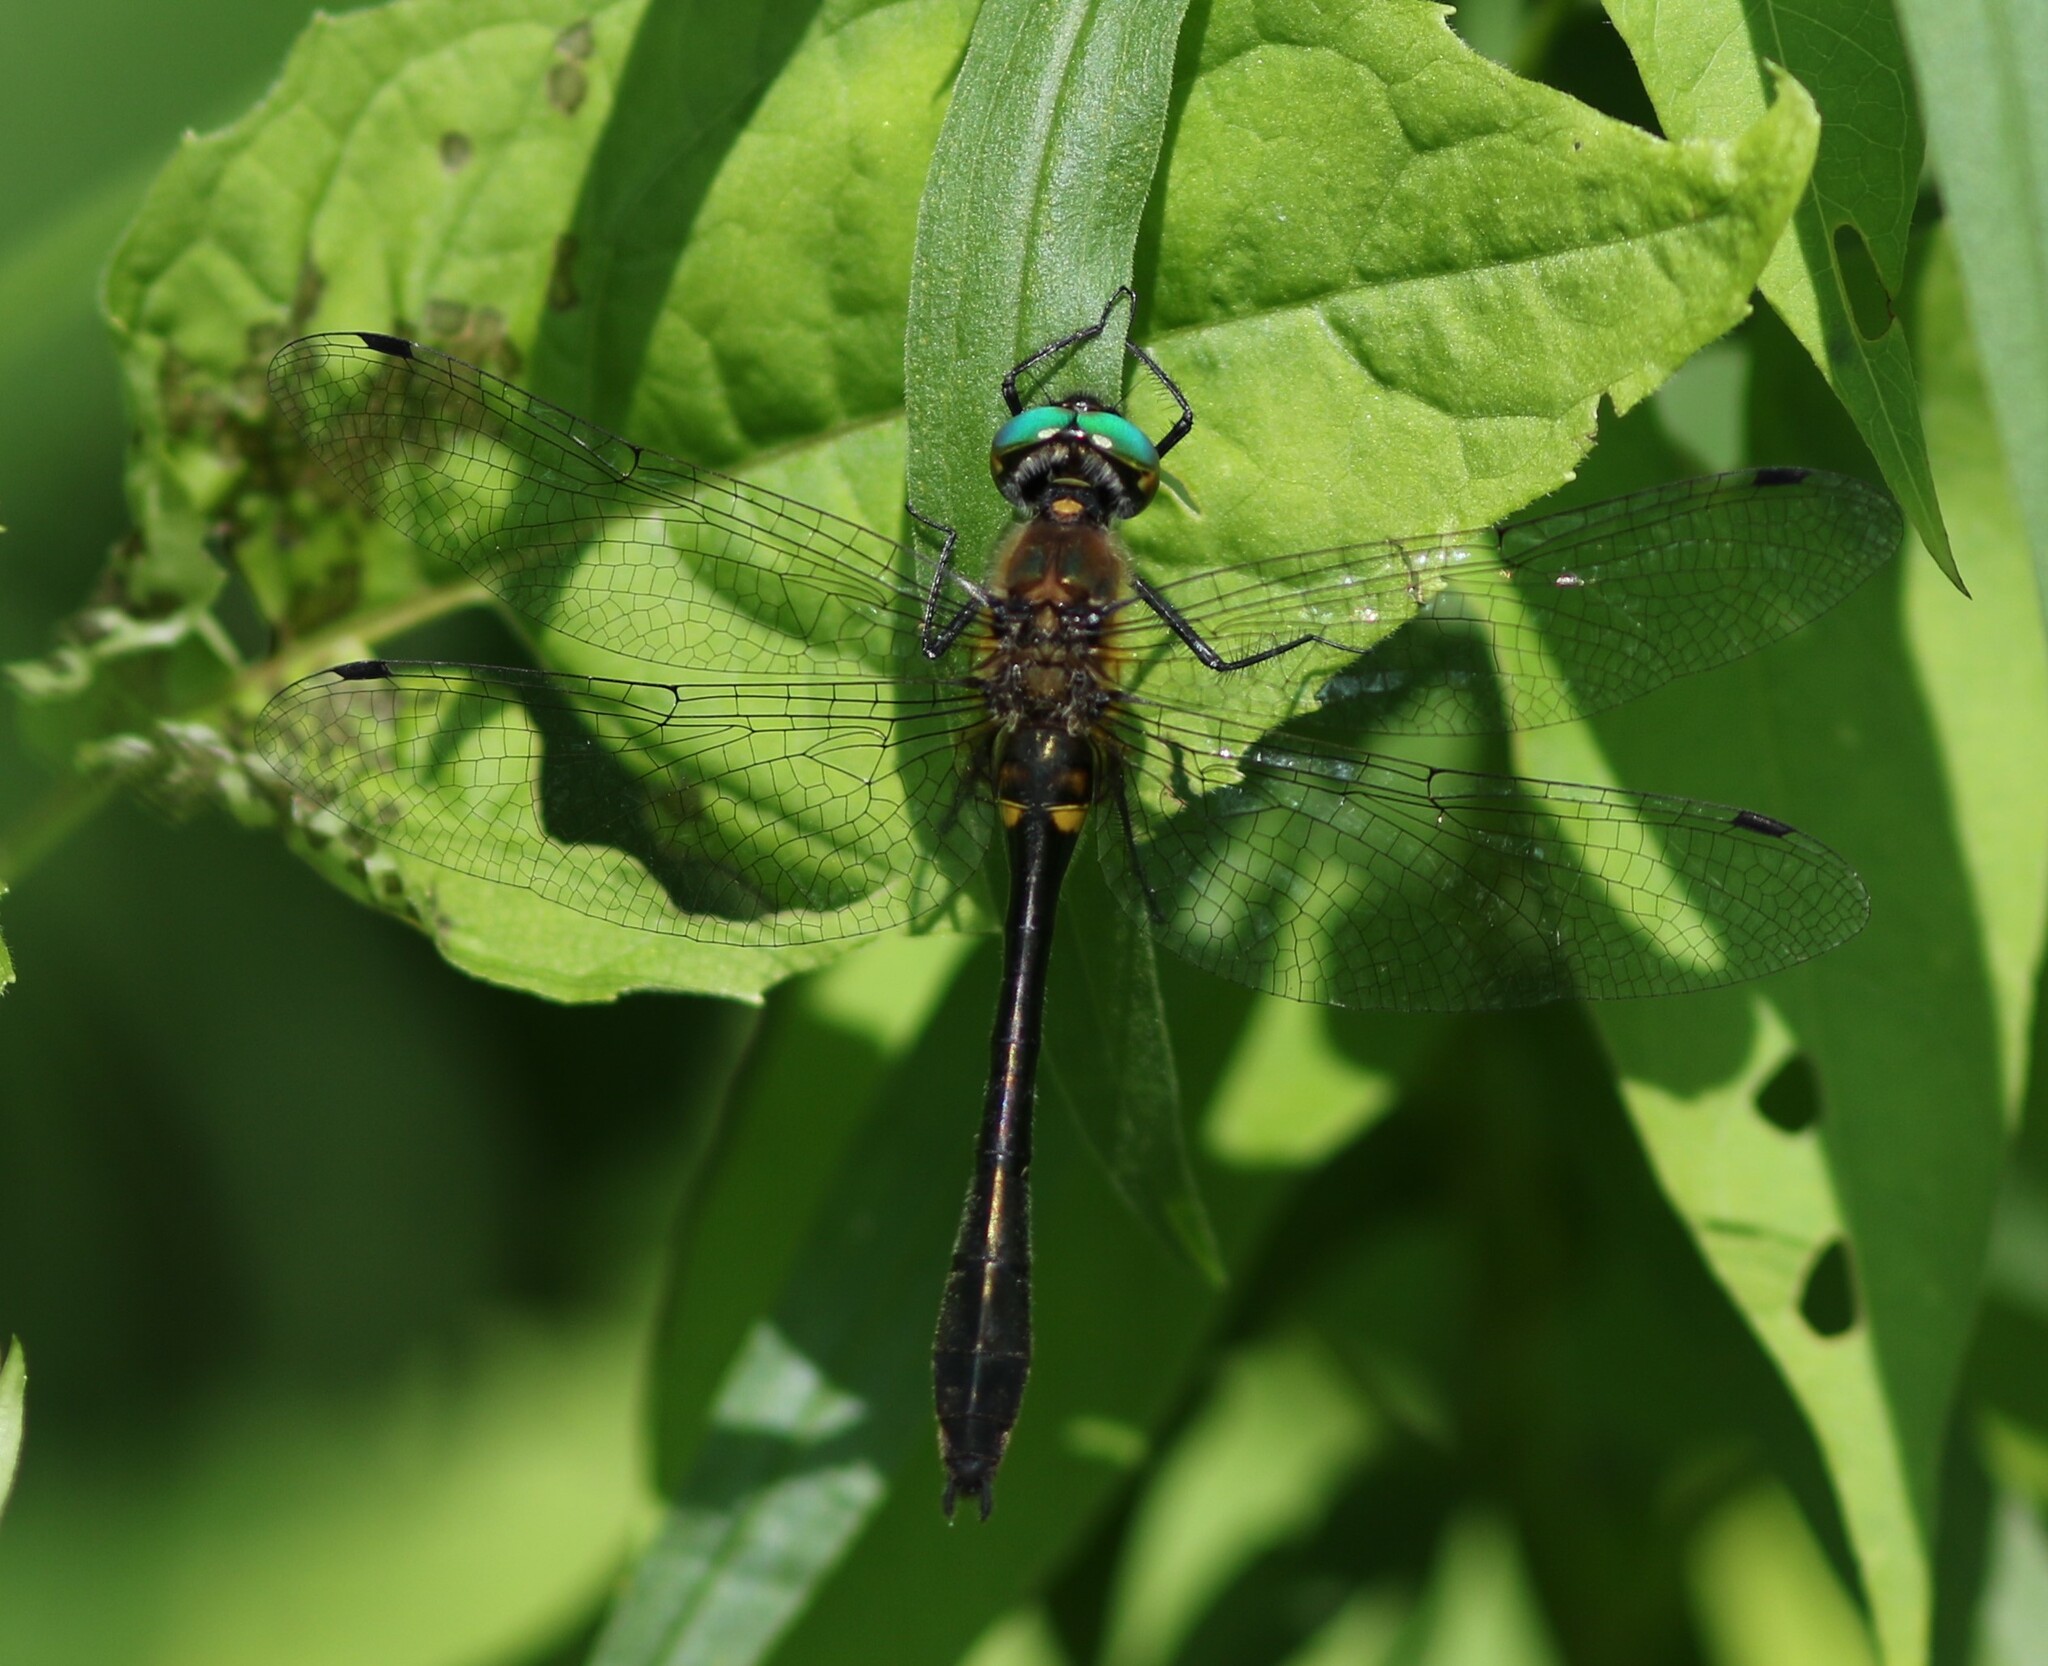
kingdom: Animalia
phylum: Arthropoda
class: Insecta
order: Odonata
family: Corduliidae
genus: Dorocordulia
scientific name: Dorocordulia libera
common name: Racket-tailed emerald
